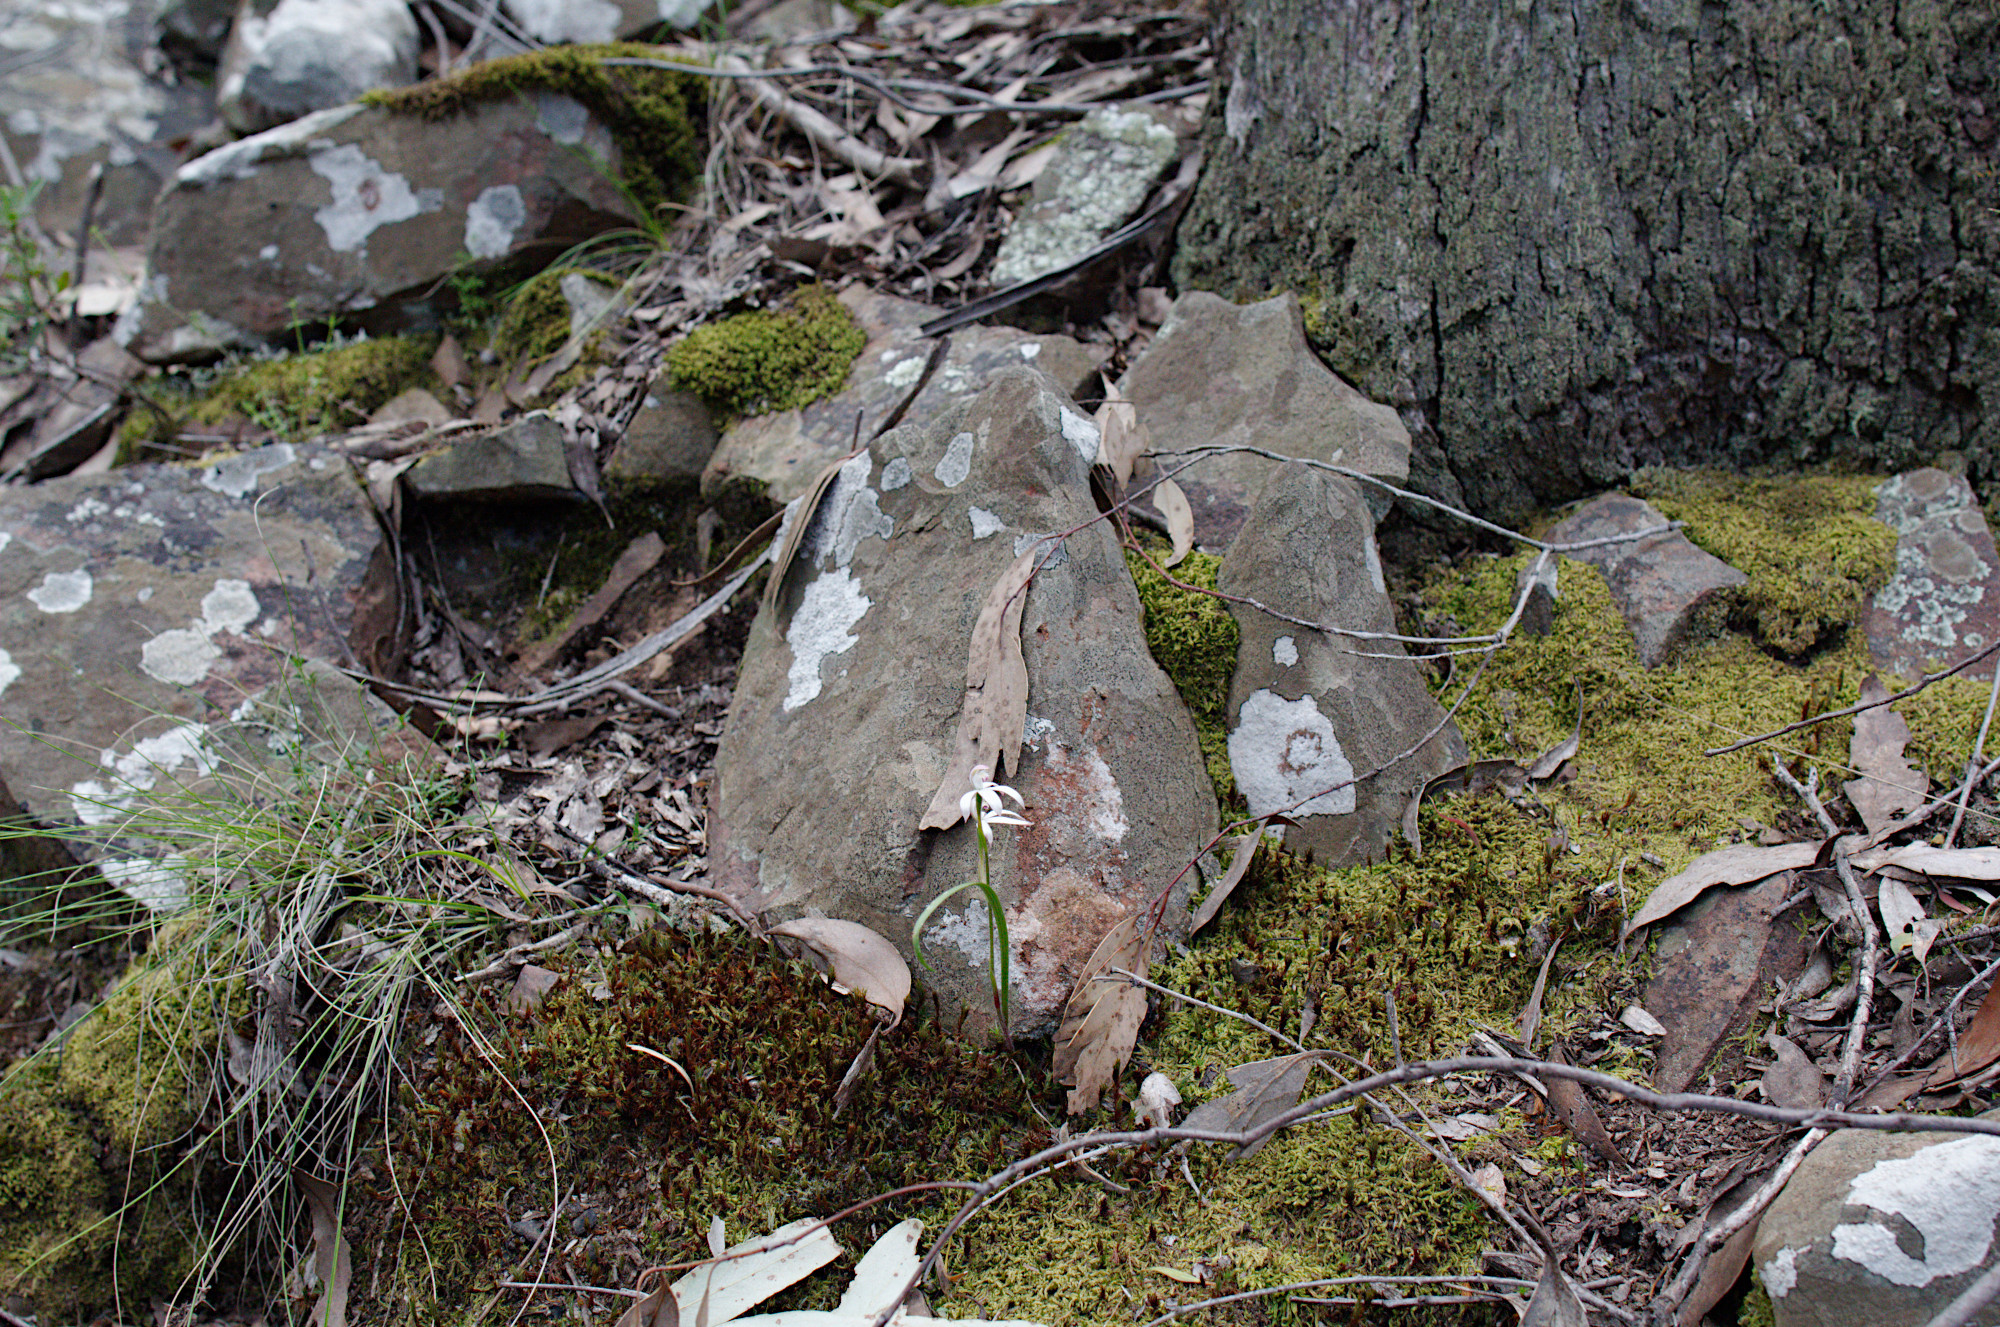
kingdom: Plantae
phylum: Tracheophyta
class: Liliopsida
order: Asparagales
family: Orchidaceae
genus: Caladenia
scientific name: Caladenia dimorpha
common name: Spicy caps
